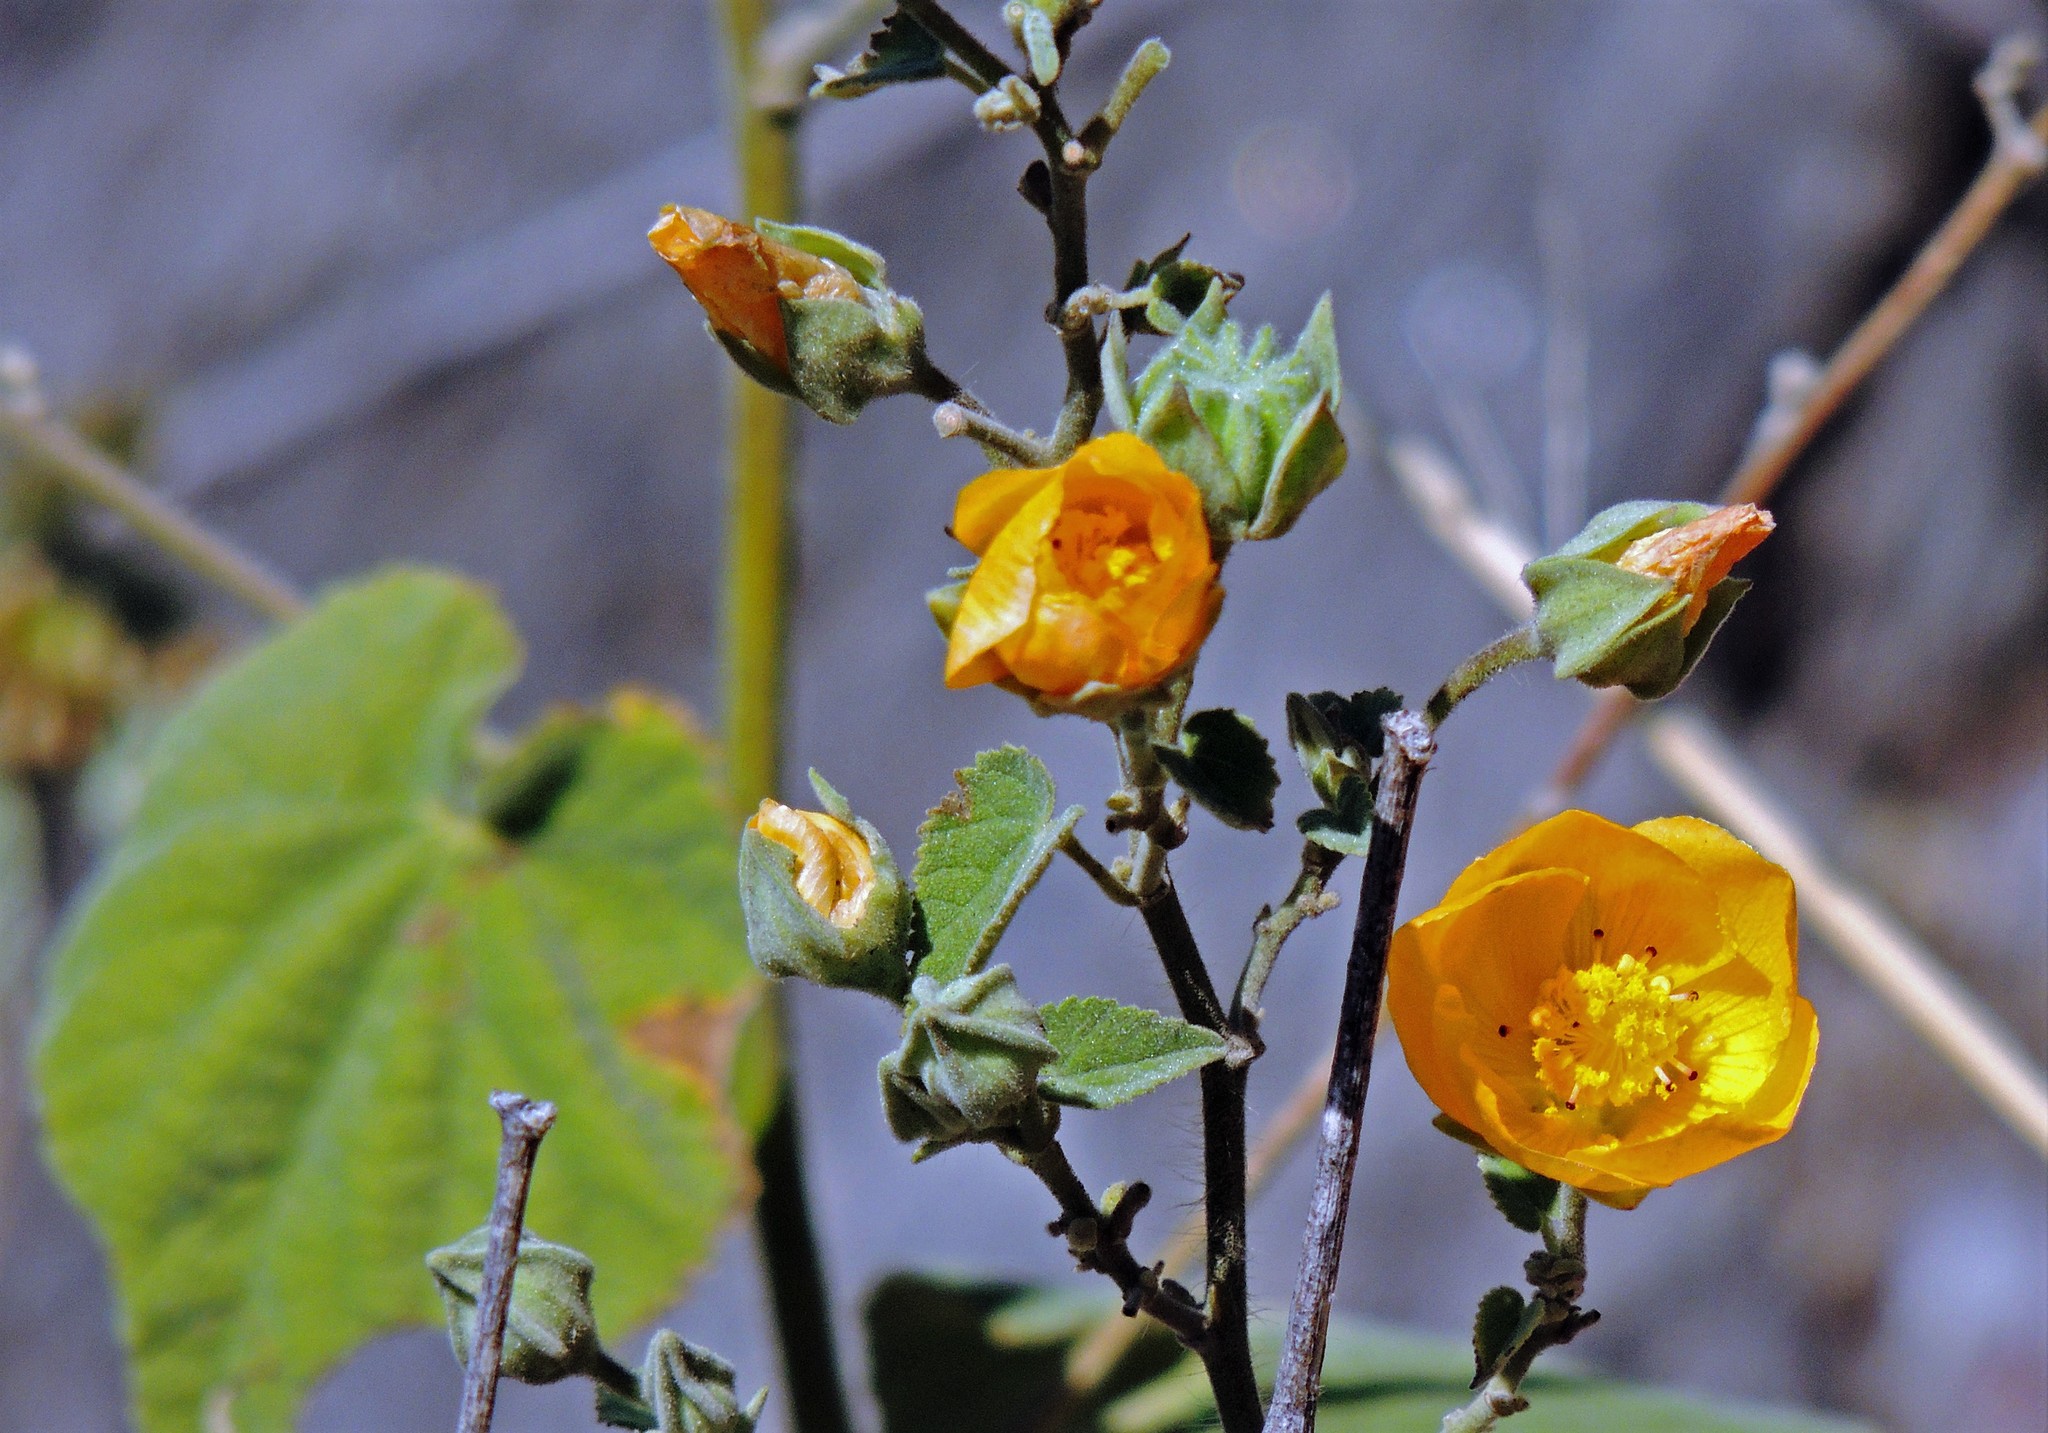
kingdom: Plantae
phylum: Tracheophyta
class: Magnoliopsida
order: Malvales
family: Malvaceae
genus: Abutilon
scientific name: Abutilon grandifolium
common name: Hairy abutilon
